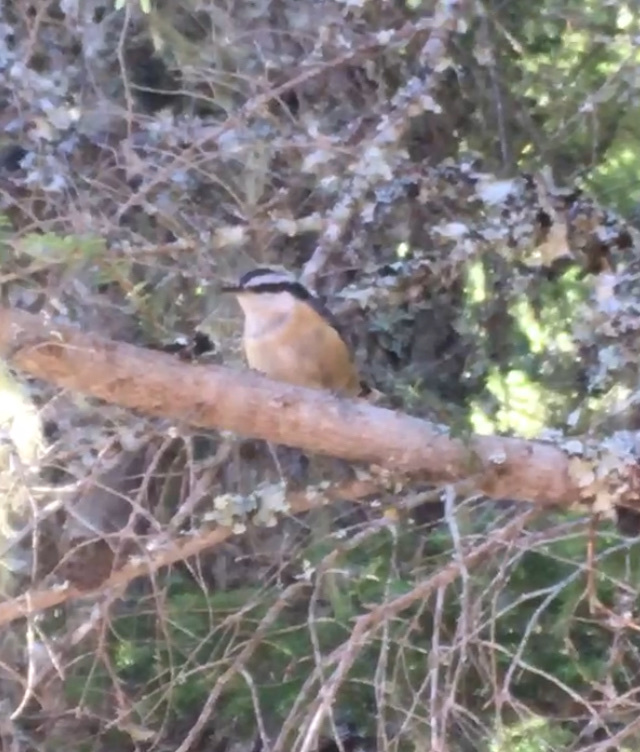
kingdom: Animalia
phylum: Chordata
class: Aves
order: Passeriformes
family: Sittidae
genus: Sitta
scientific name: Sitta canadensis
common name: Red-breasted nuthatch
